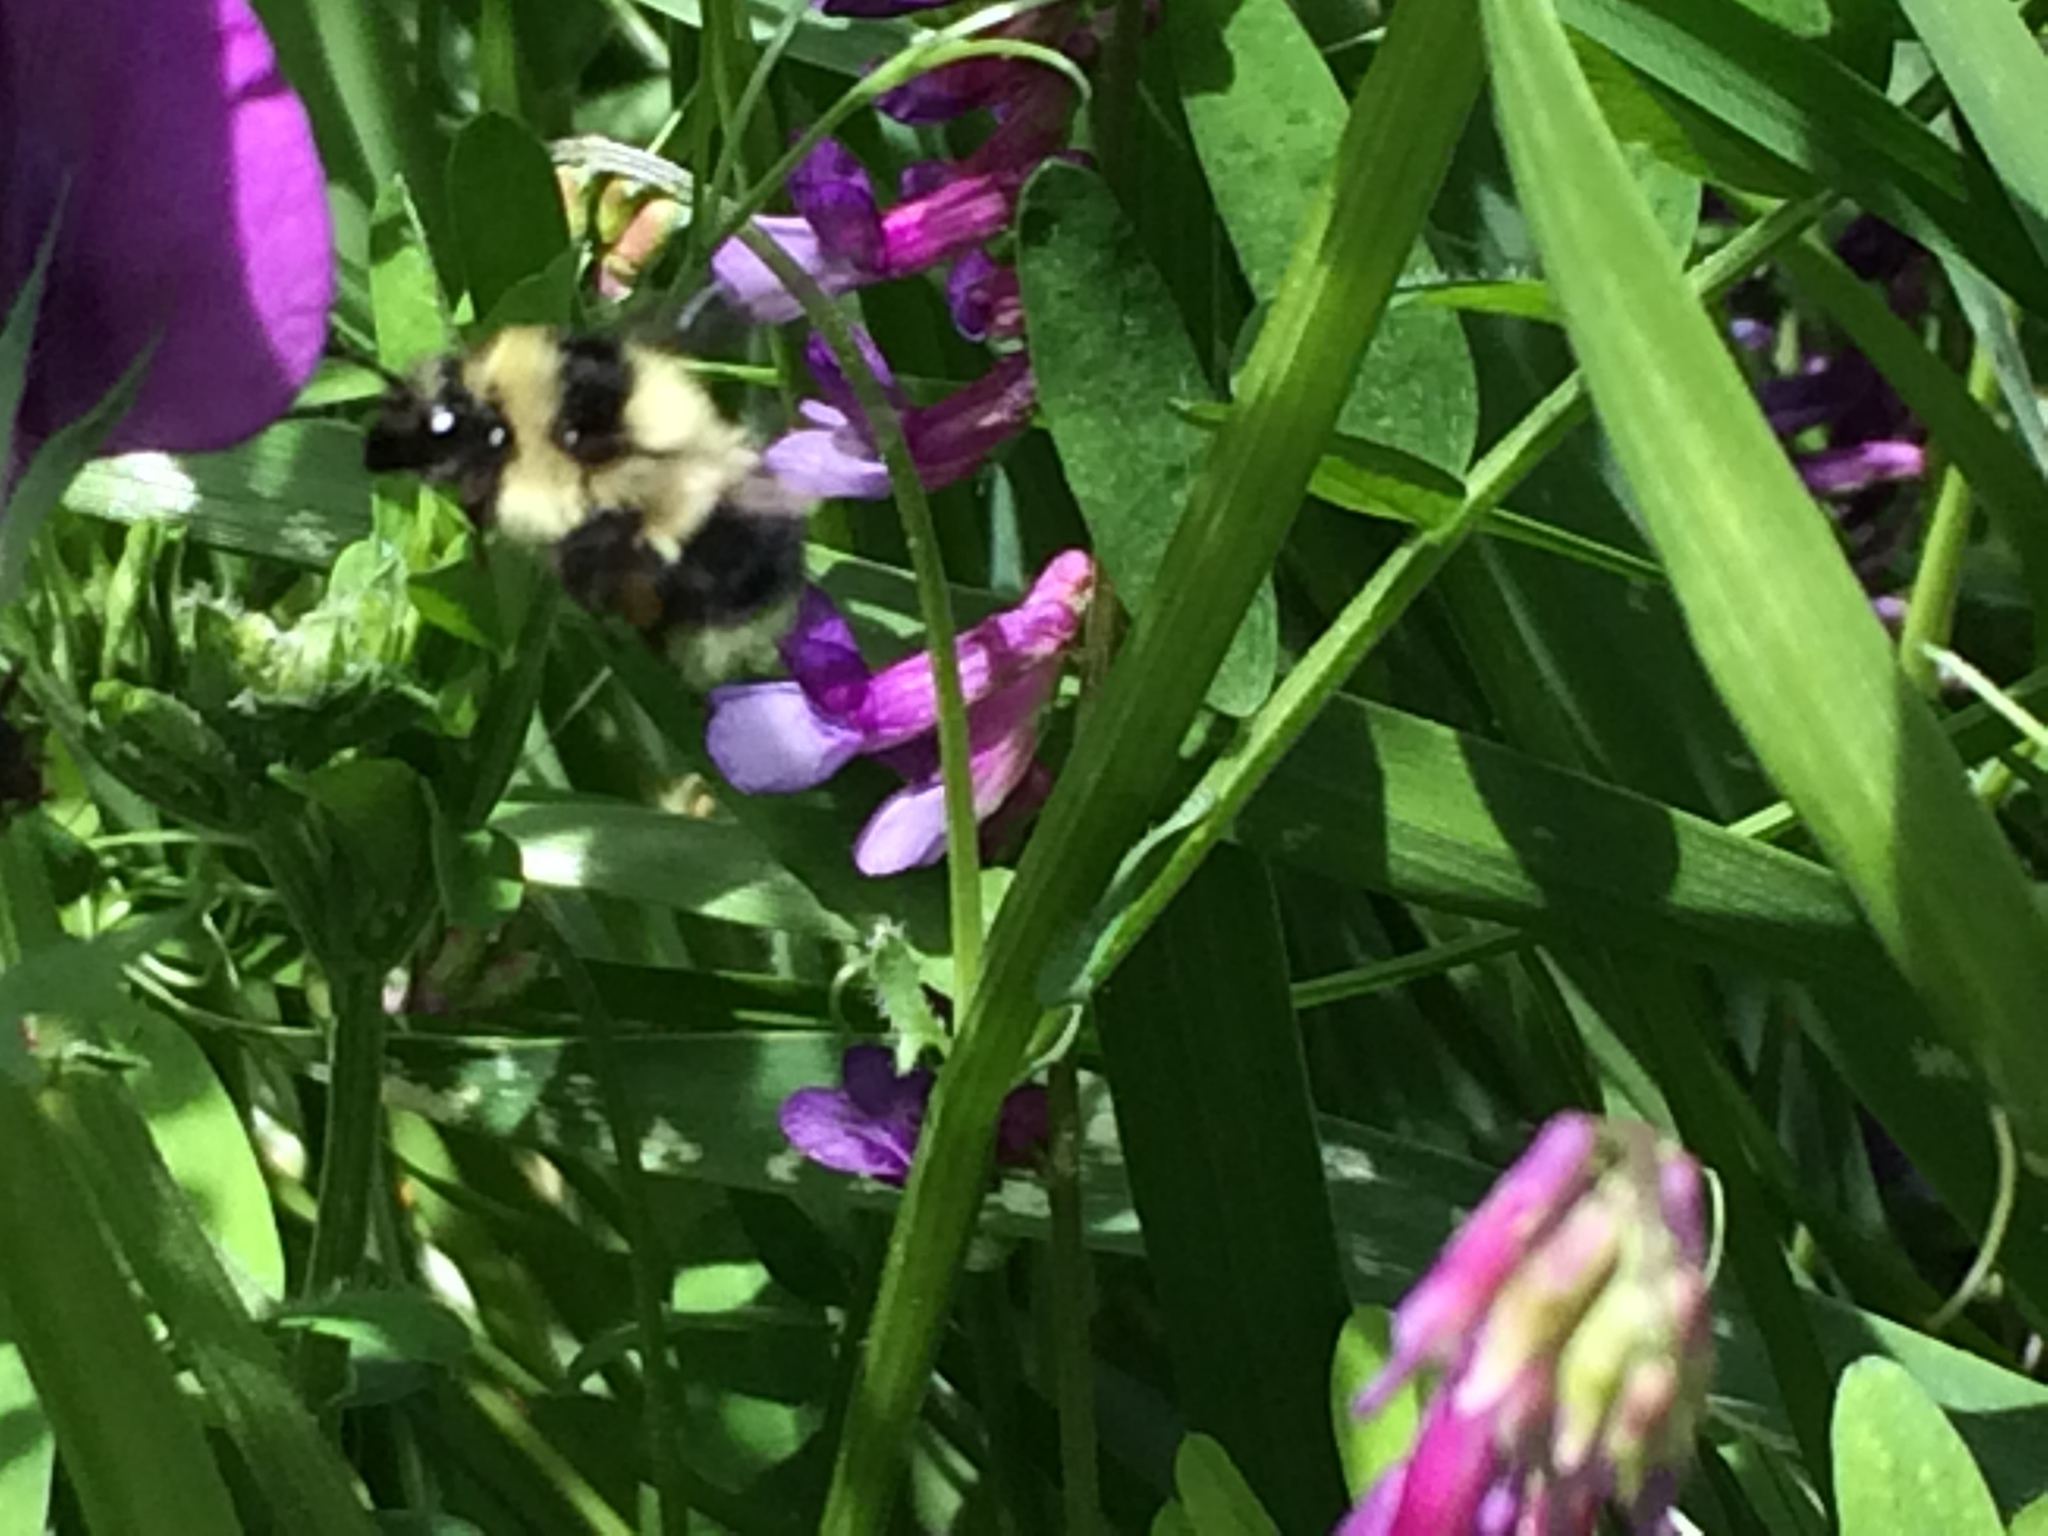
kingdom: Animalia
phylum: Arthropoda
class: Insecta
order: Hymenoptera
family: Apidae
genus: Bombus
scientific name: Bombus melanopygus
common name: Black tail bumble bee
